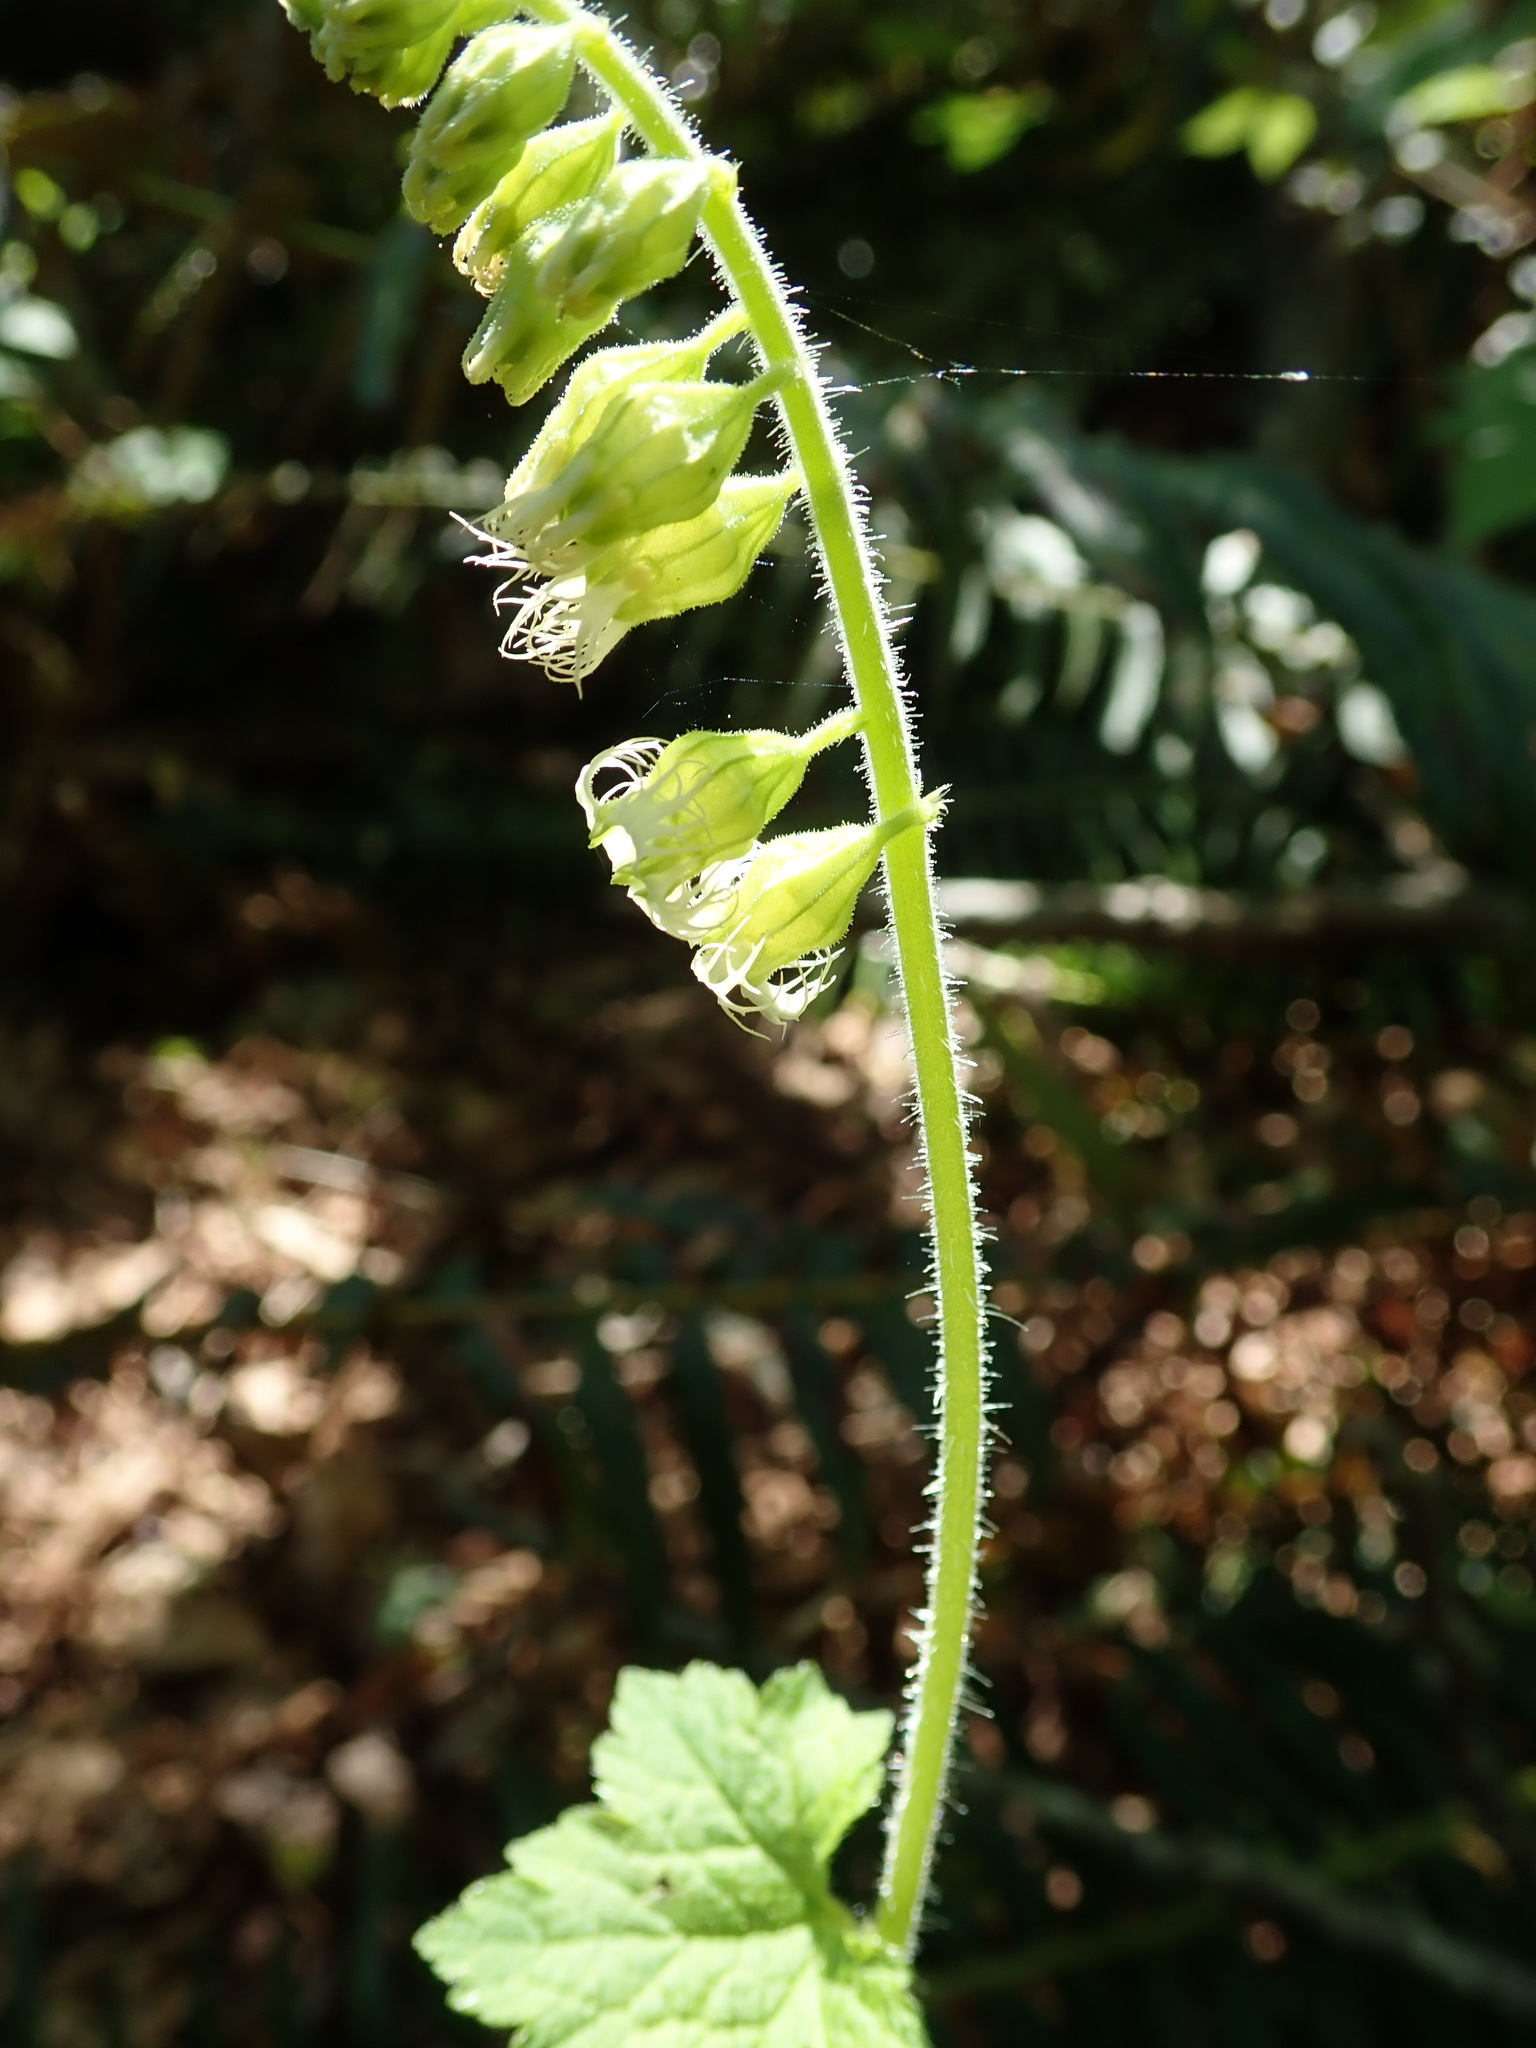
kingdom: Plantae
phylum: Tracheophyta
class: Magnoliopsida
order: Saxifragales
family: Saxifragaceae
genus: Tellima
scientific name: Tellima grandiflora
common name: Fringecups
